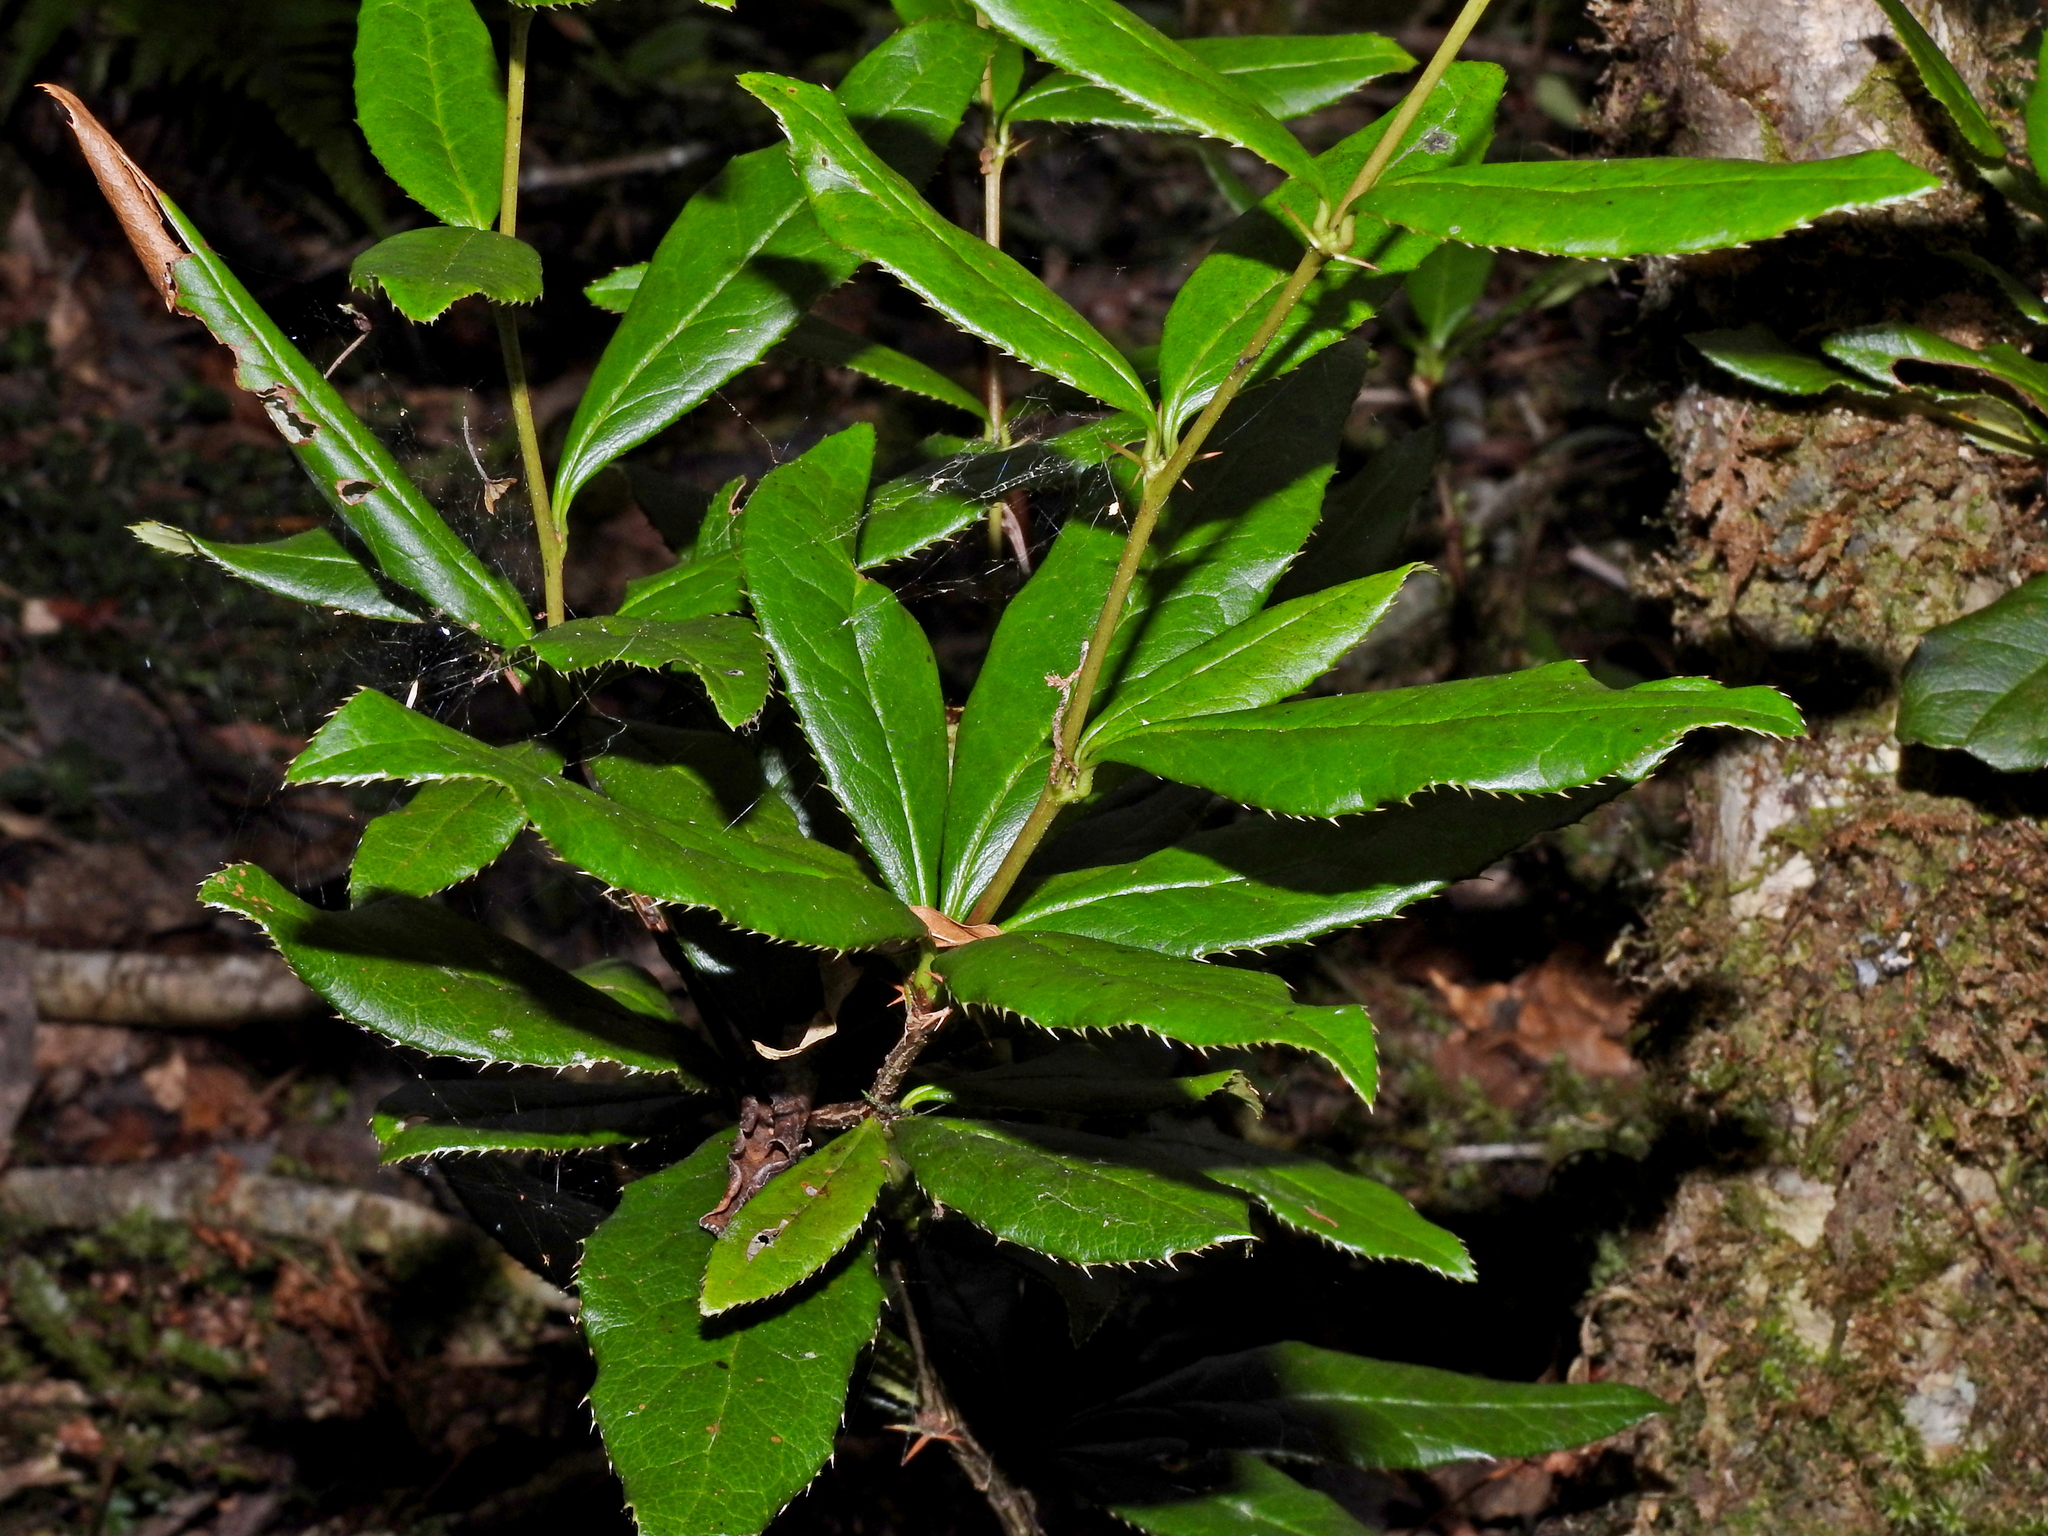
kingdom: Plantae
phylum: Tracheophyta
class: Magnoliopsida
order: Ranunculales
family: Berberidaceae
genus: Berberis
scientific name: Berberis schaaliae
